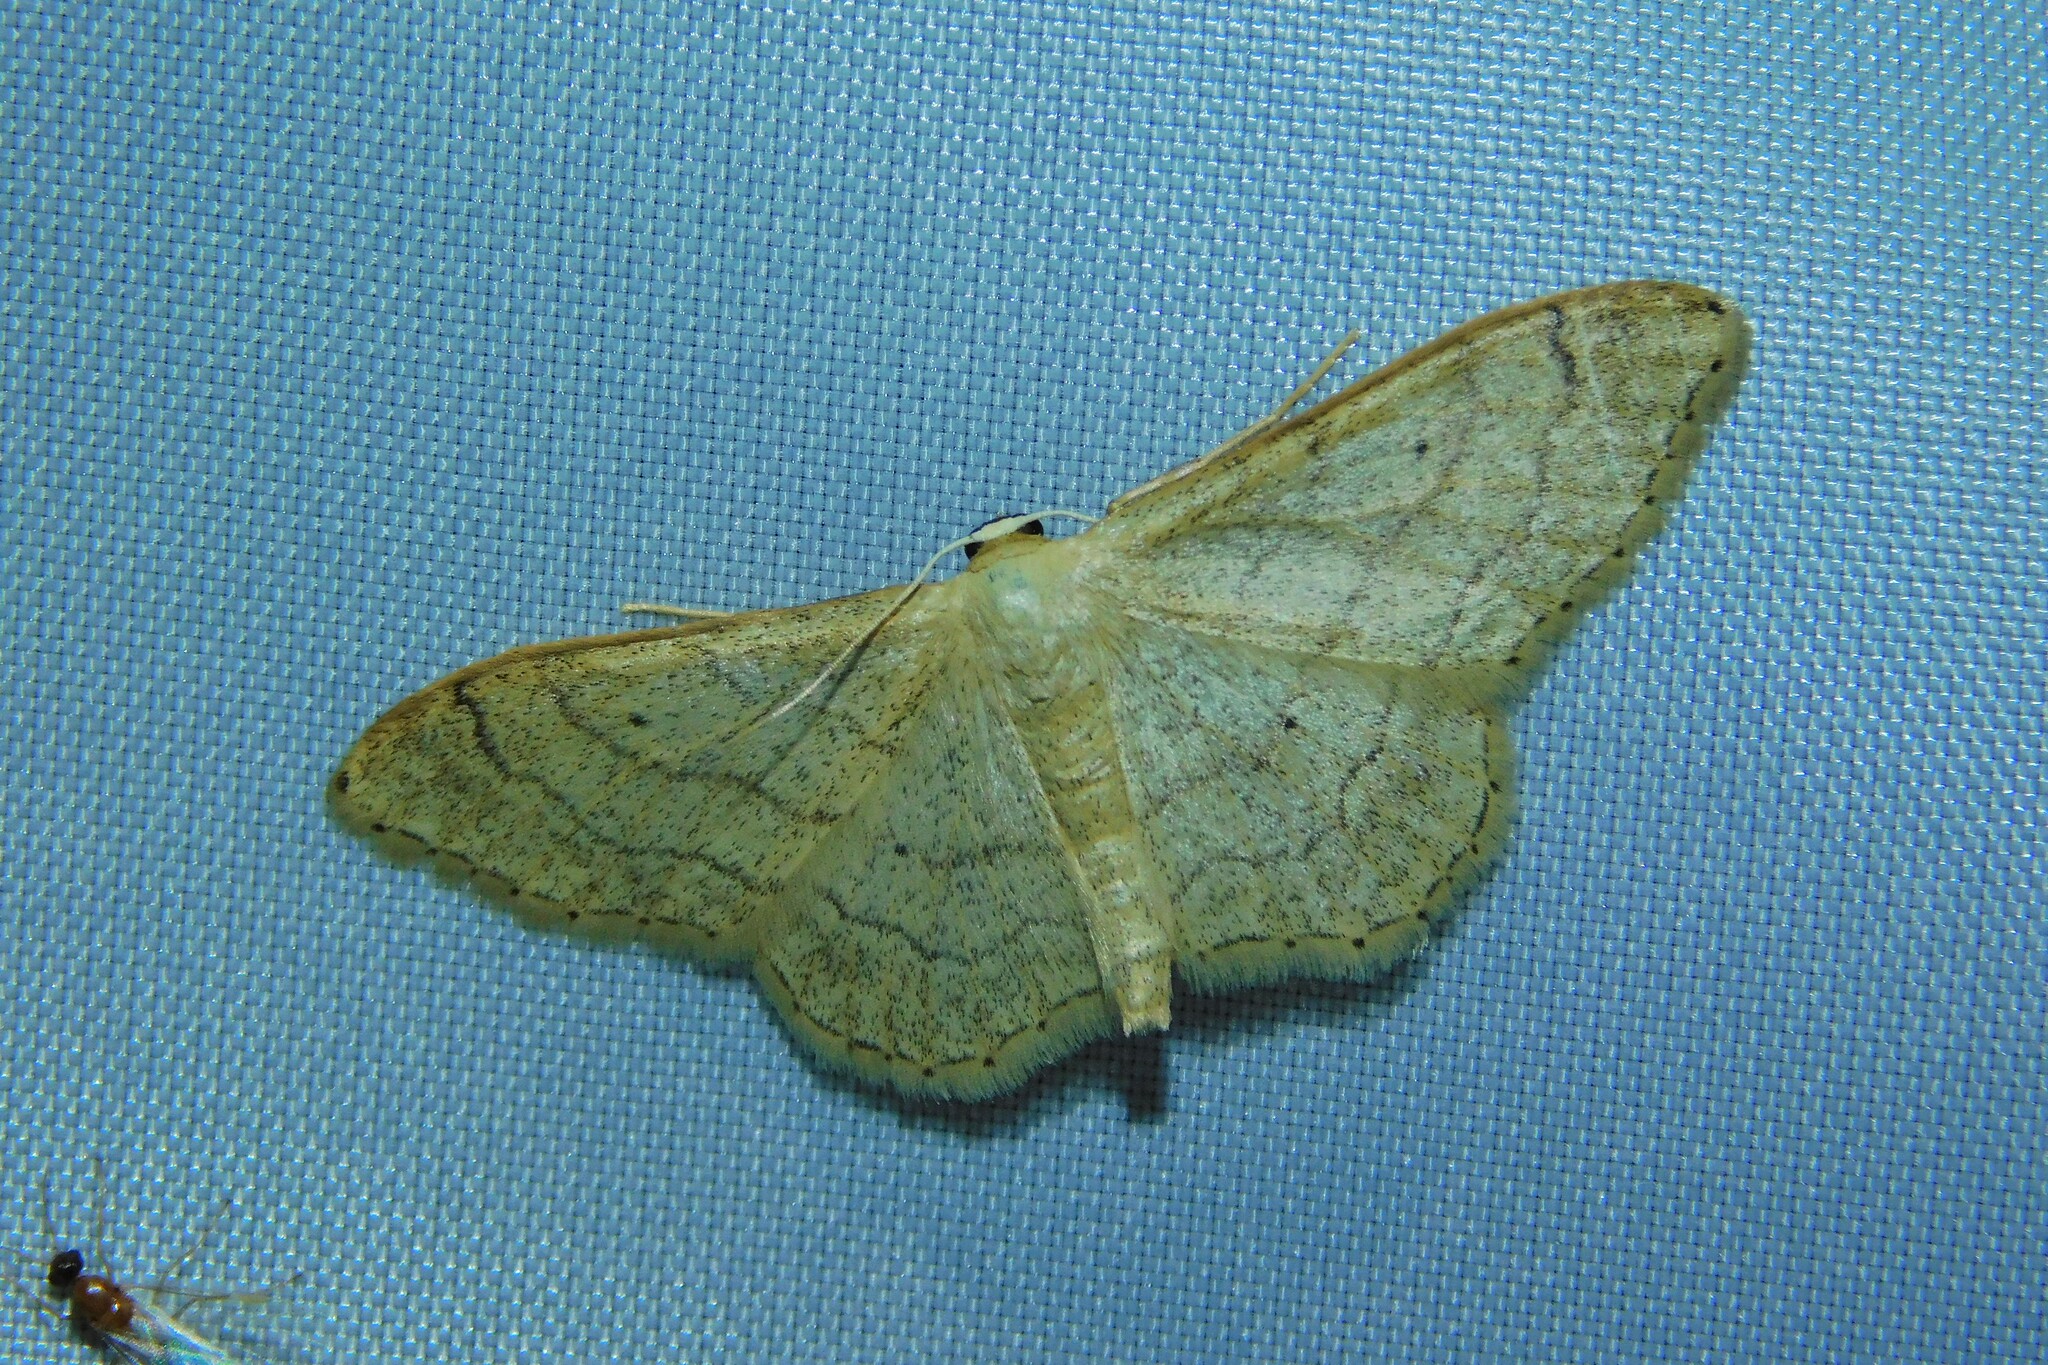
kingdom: Animalia
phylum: Arthropoda
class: Insecta
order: Lepidoptera
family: Geometridae
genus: Idaea
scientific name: Idaea aversata
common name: Riband wave
